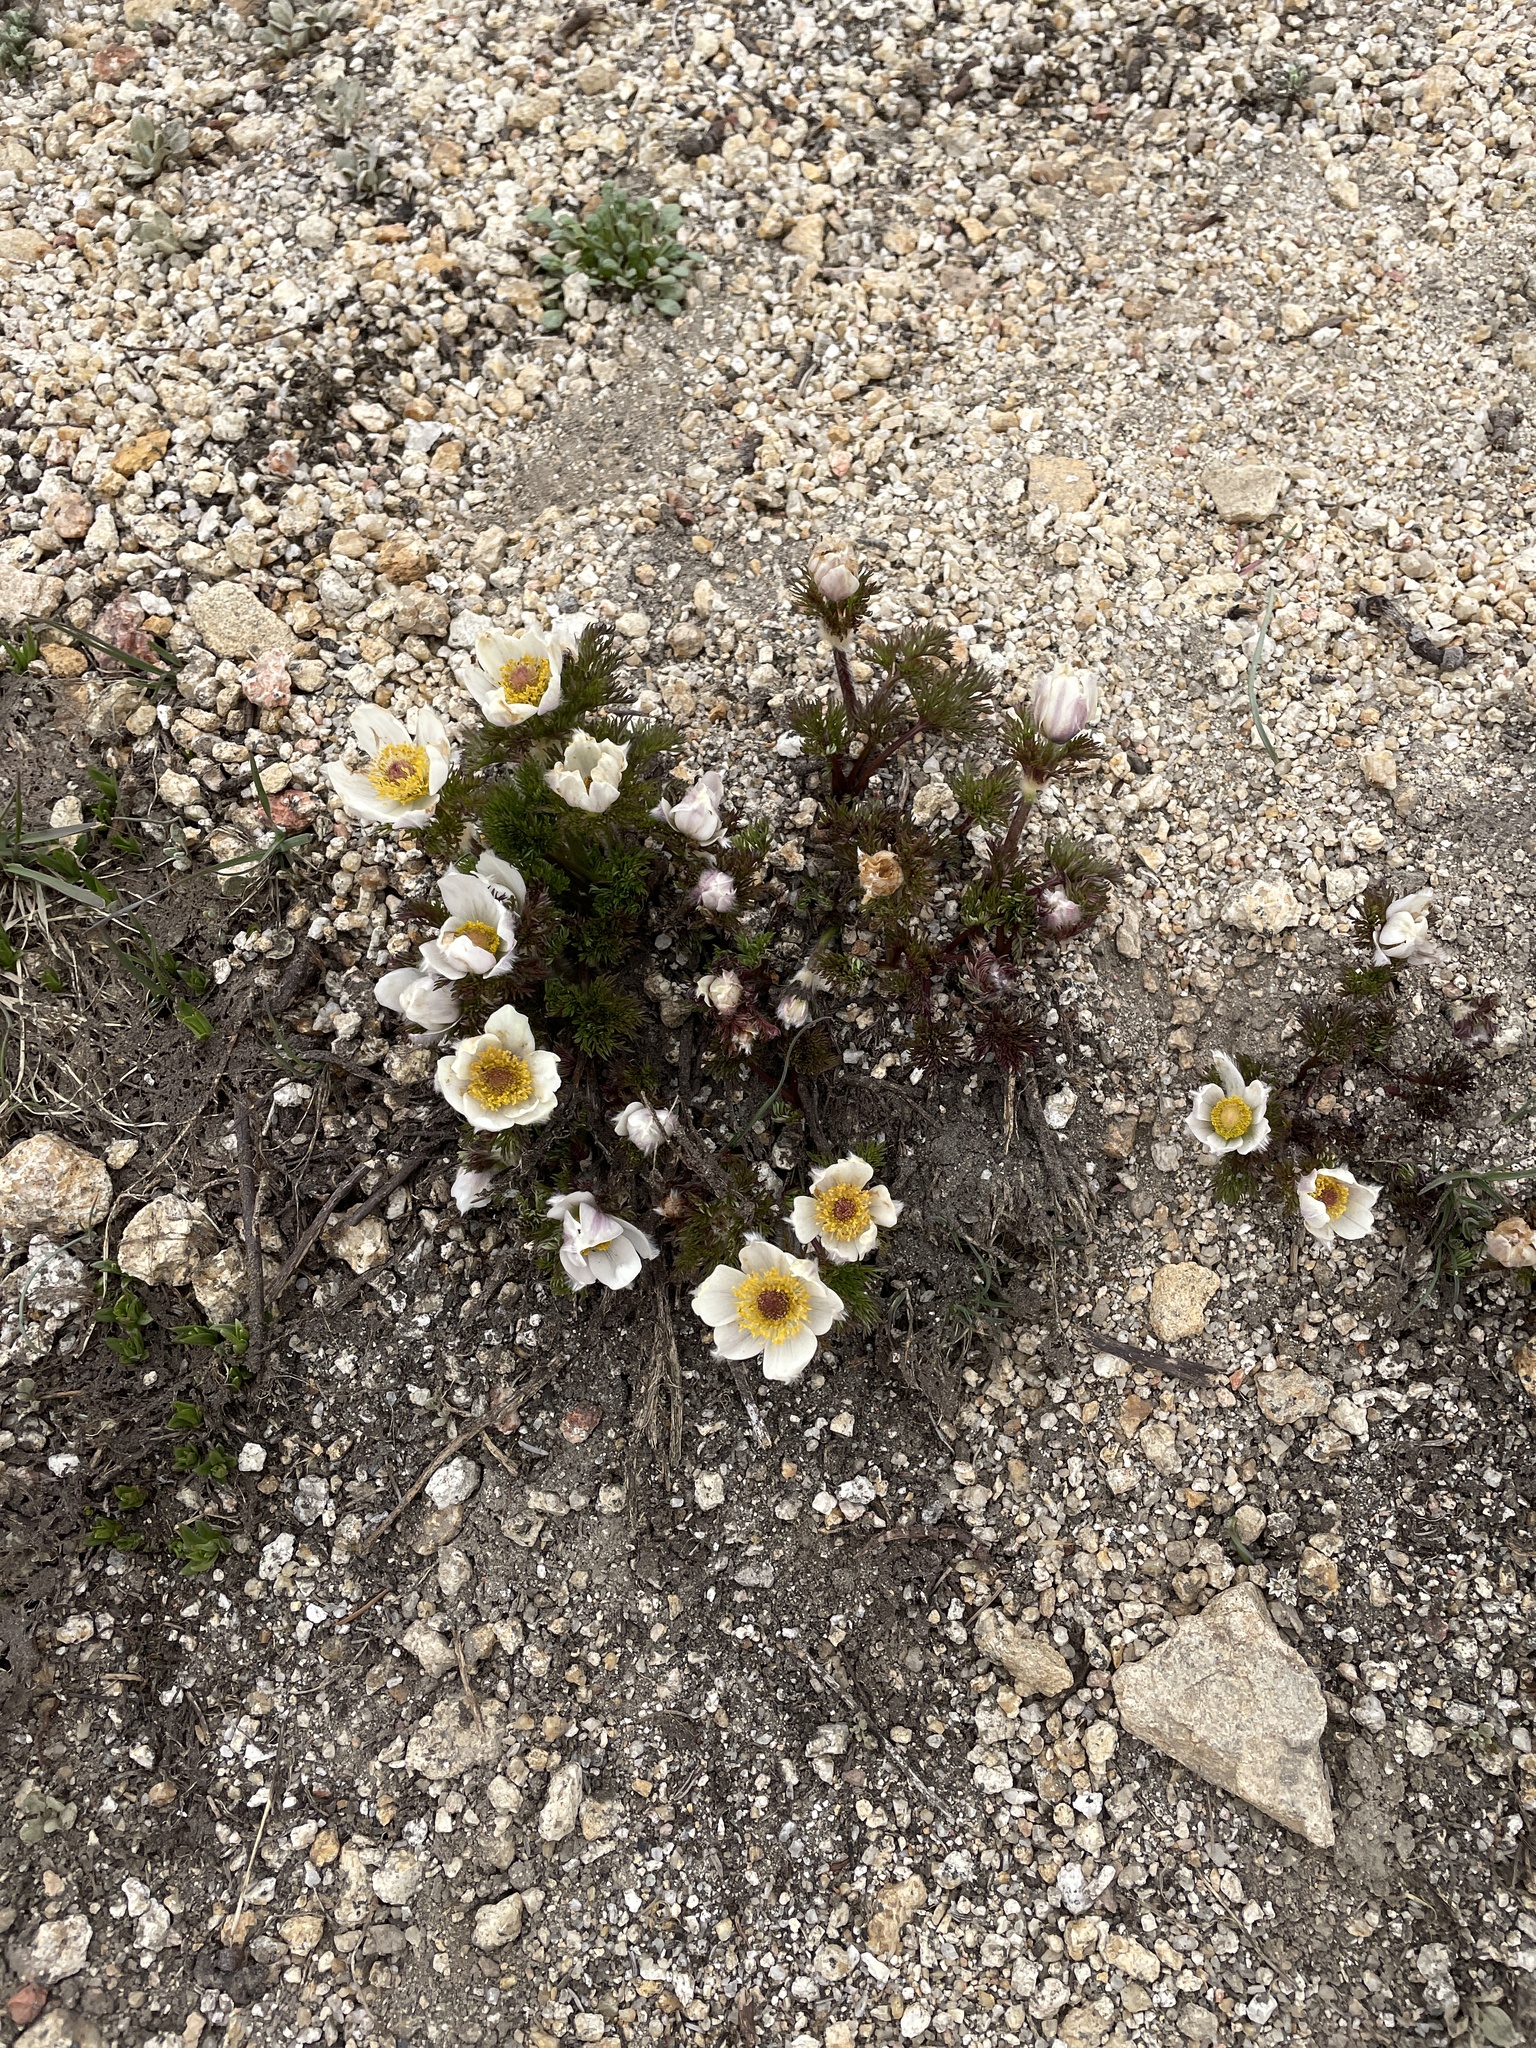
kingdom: Plantae
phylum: Tracheophyta
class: Magnoliopsida
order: Ranunculales
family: Ranunculaceae
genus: Pulsatilla
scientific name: Pulsatilla occidentalis
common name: Mountain pasqueflower
